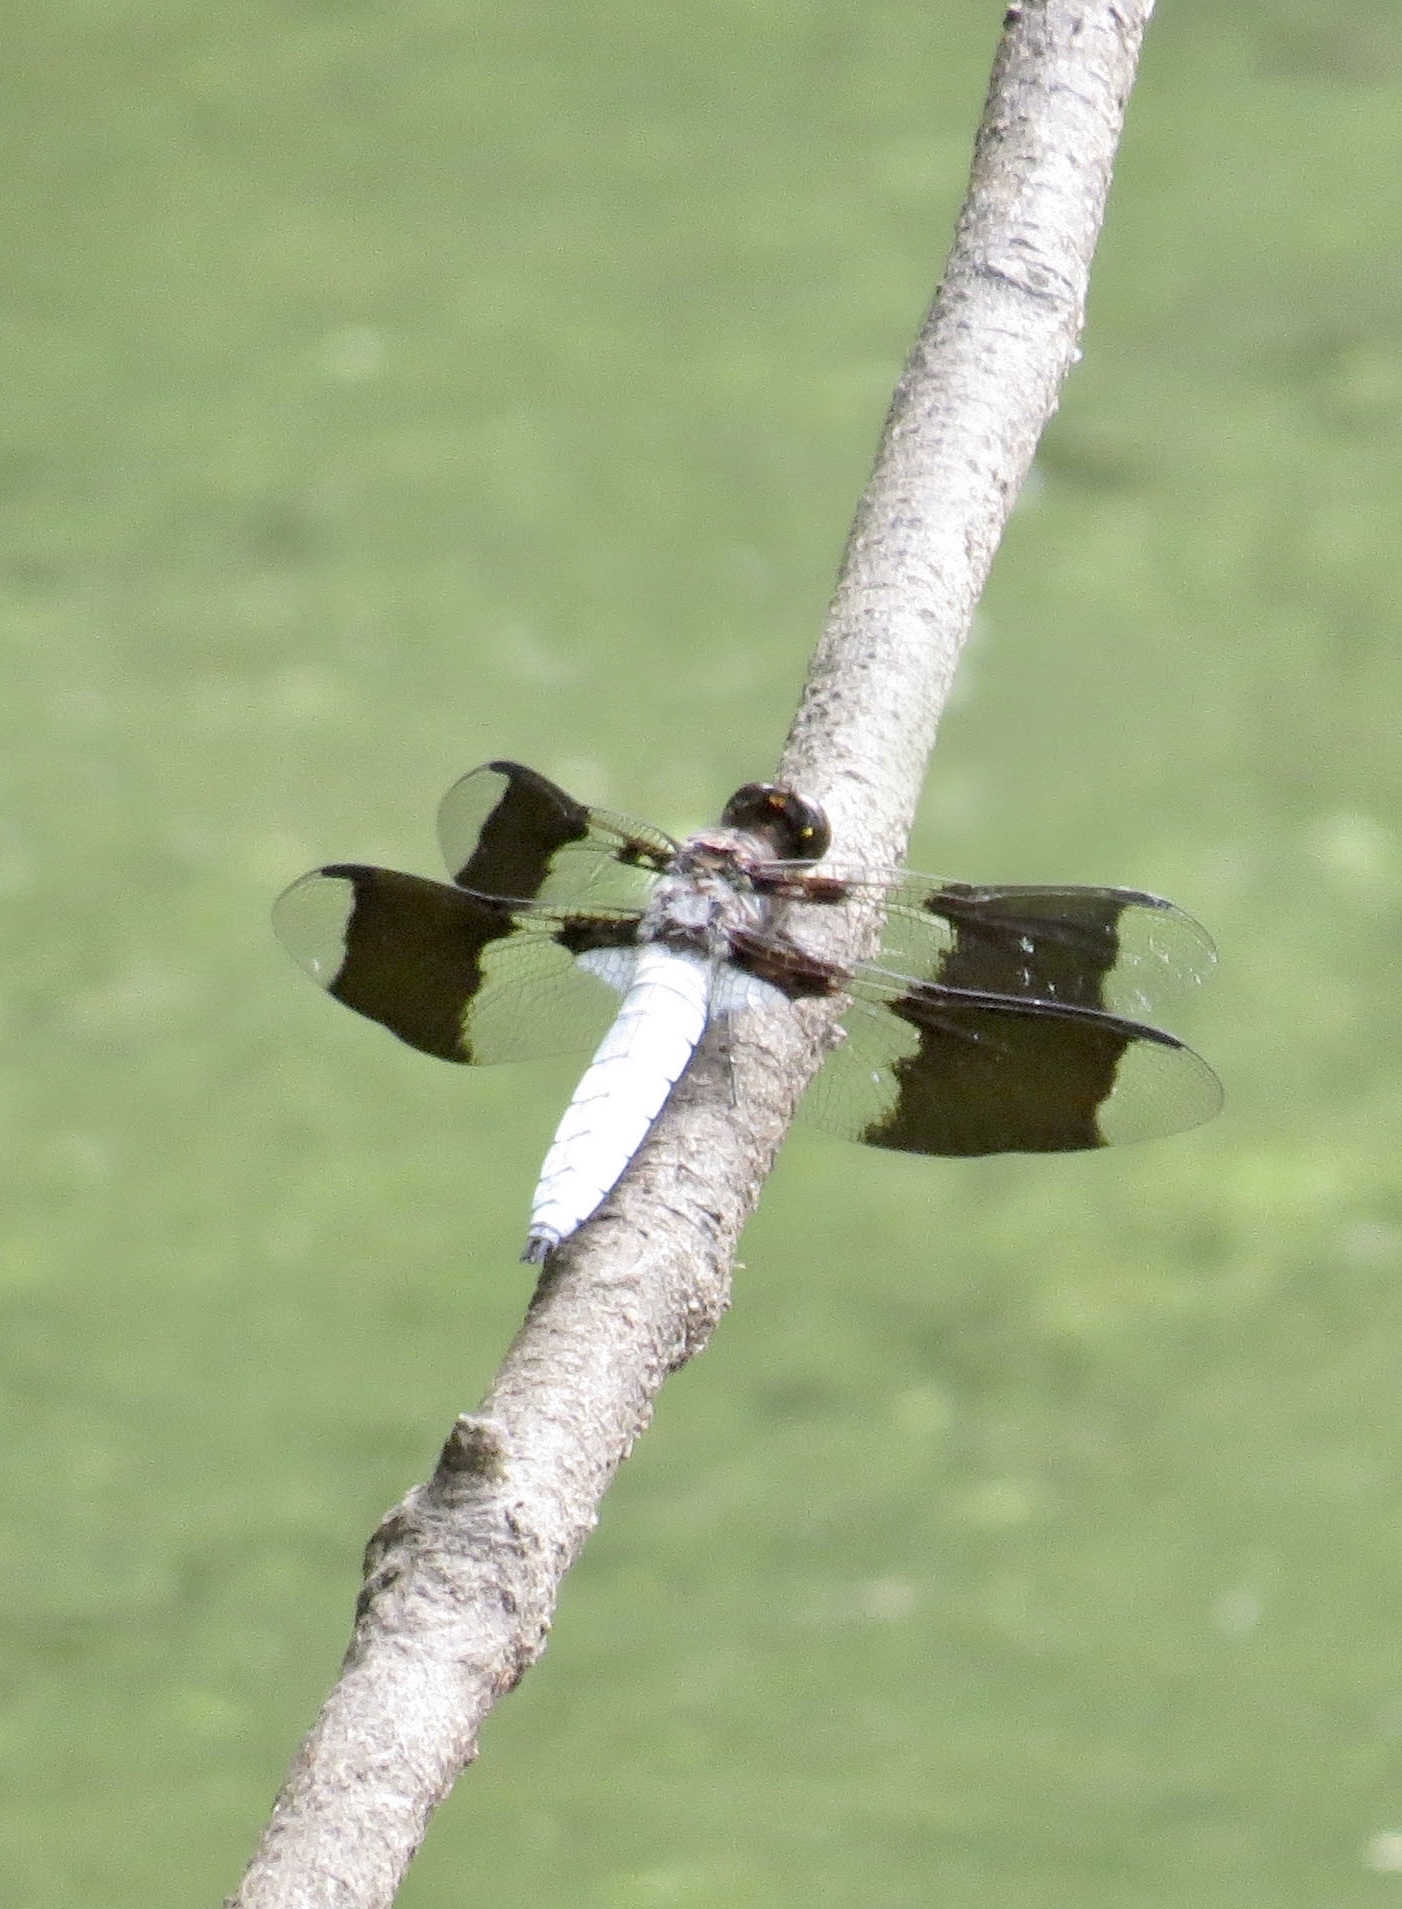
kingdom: Animalia
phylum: Arthropoda
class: Insecta
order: Odonata
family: Libellulidae
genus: Plathemis
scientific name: Plathemis lydia
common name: Common whitetail
